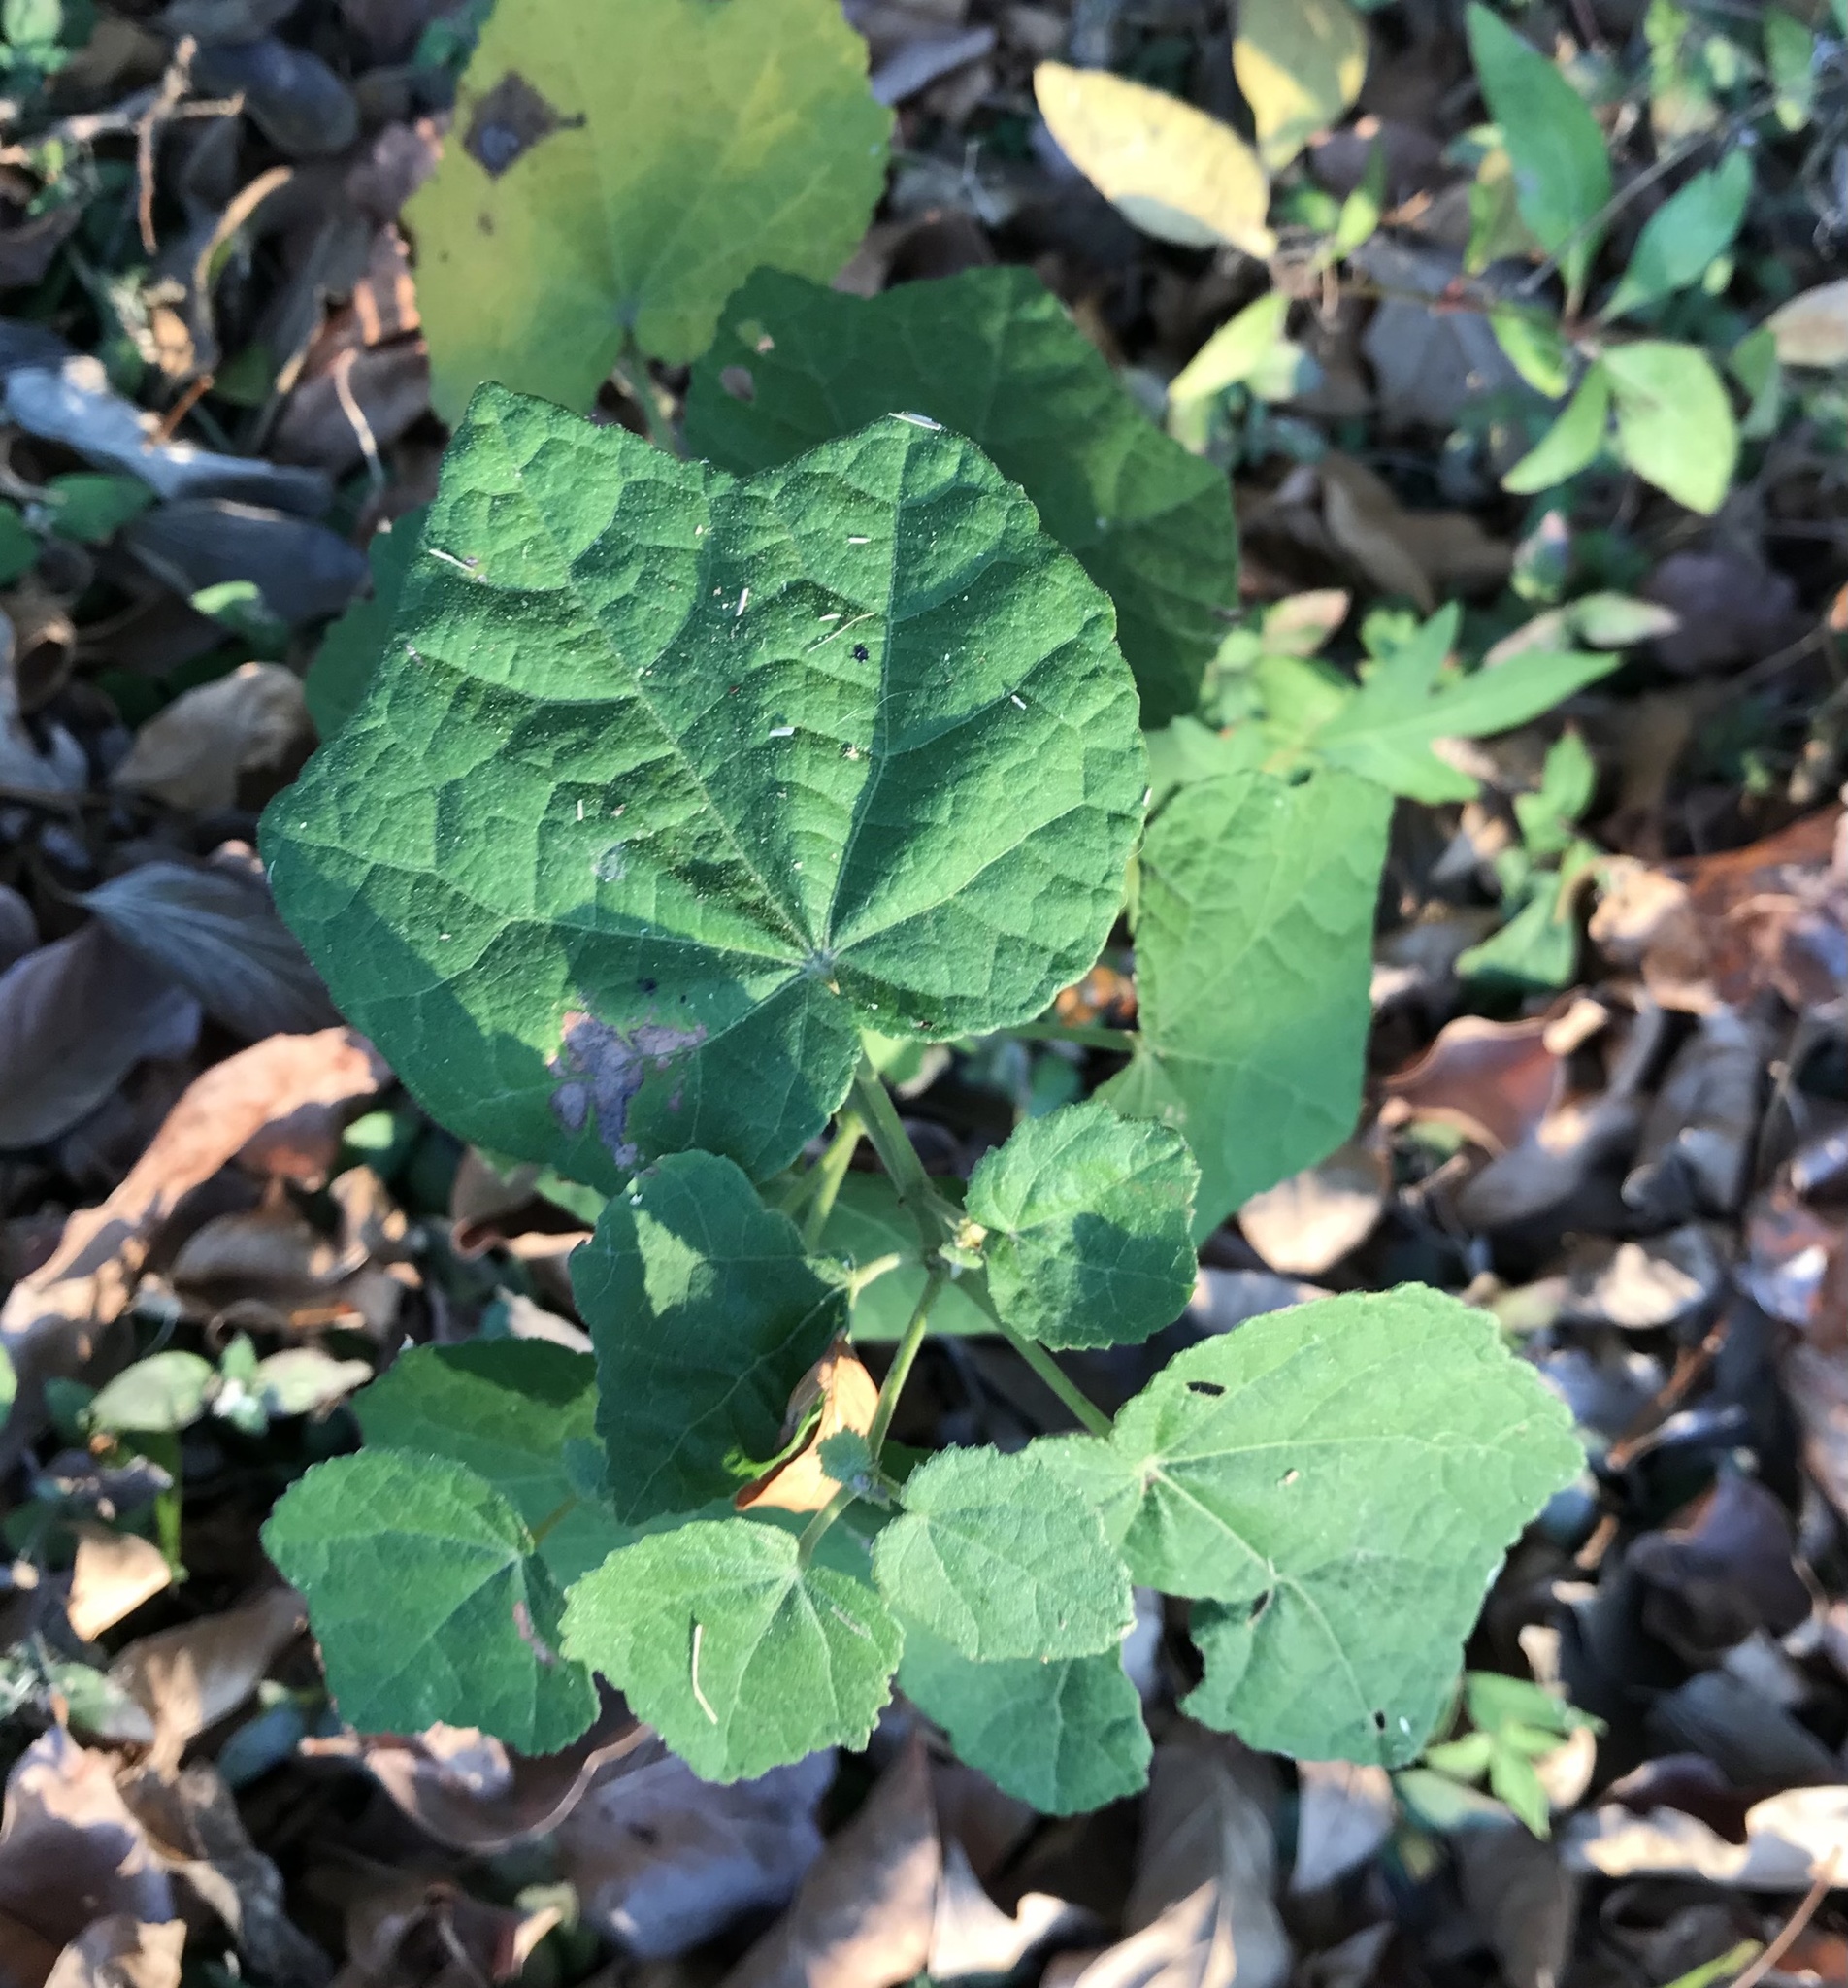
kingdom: Plantae
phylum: Tracheophyta
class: Magnoliopsida
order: Malvales
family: Malvaceae
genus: Malvaviscus
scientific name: Malvaviscus arboreus
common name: Wax mallow
